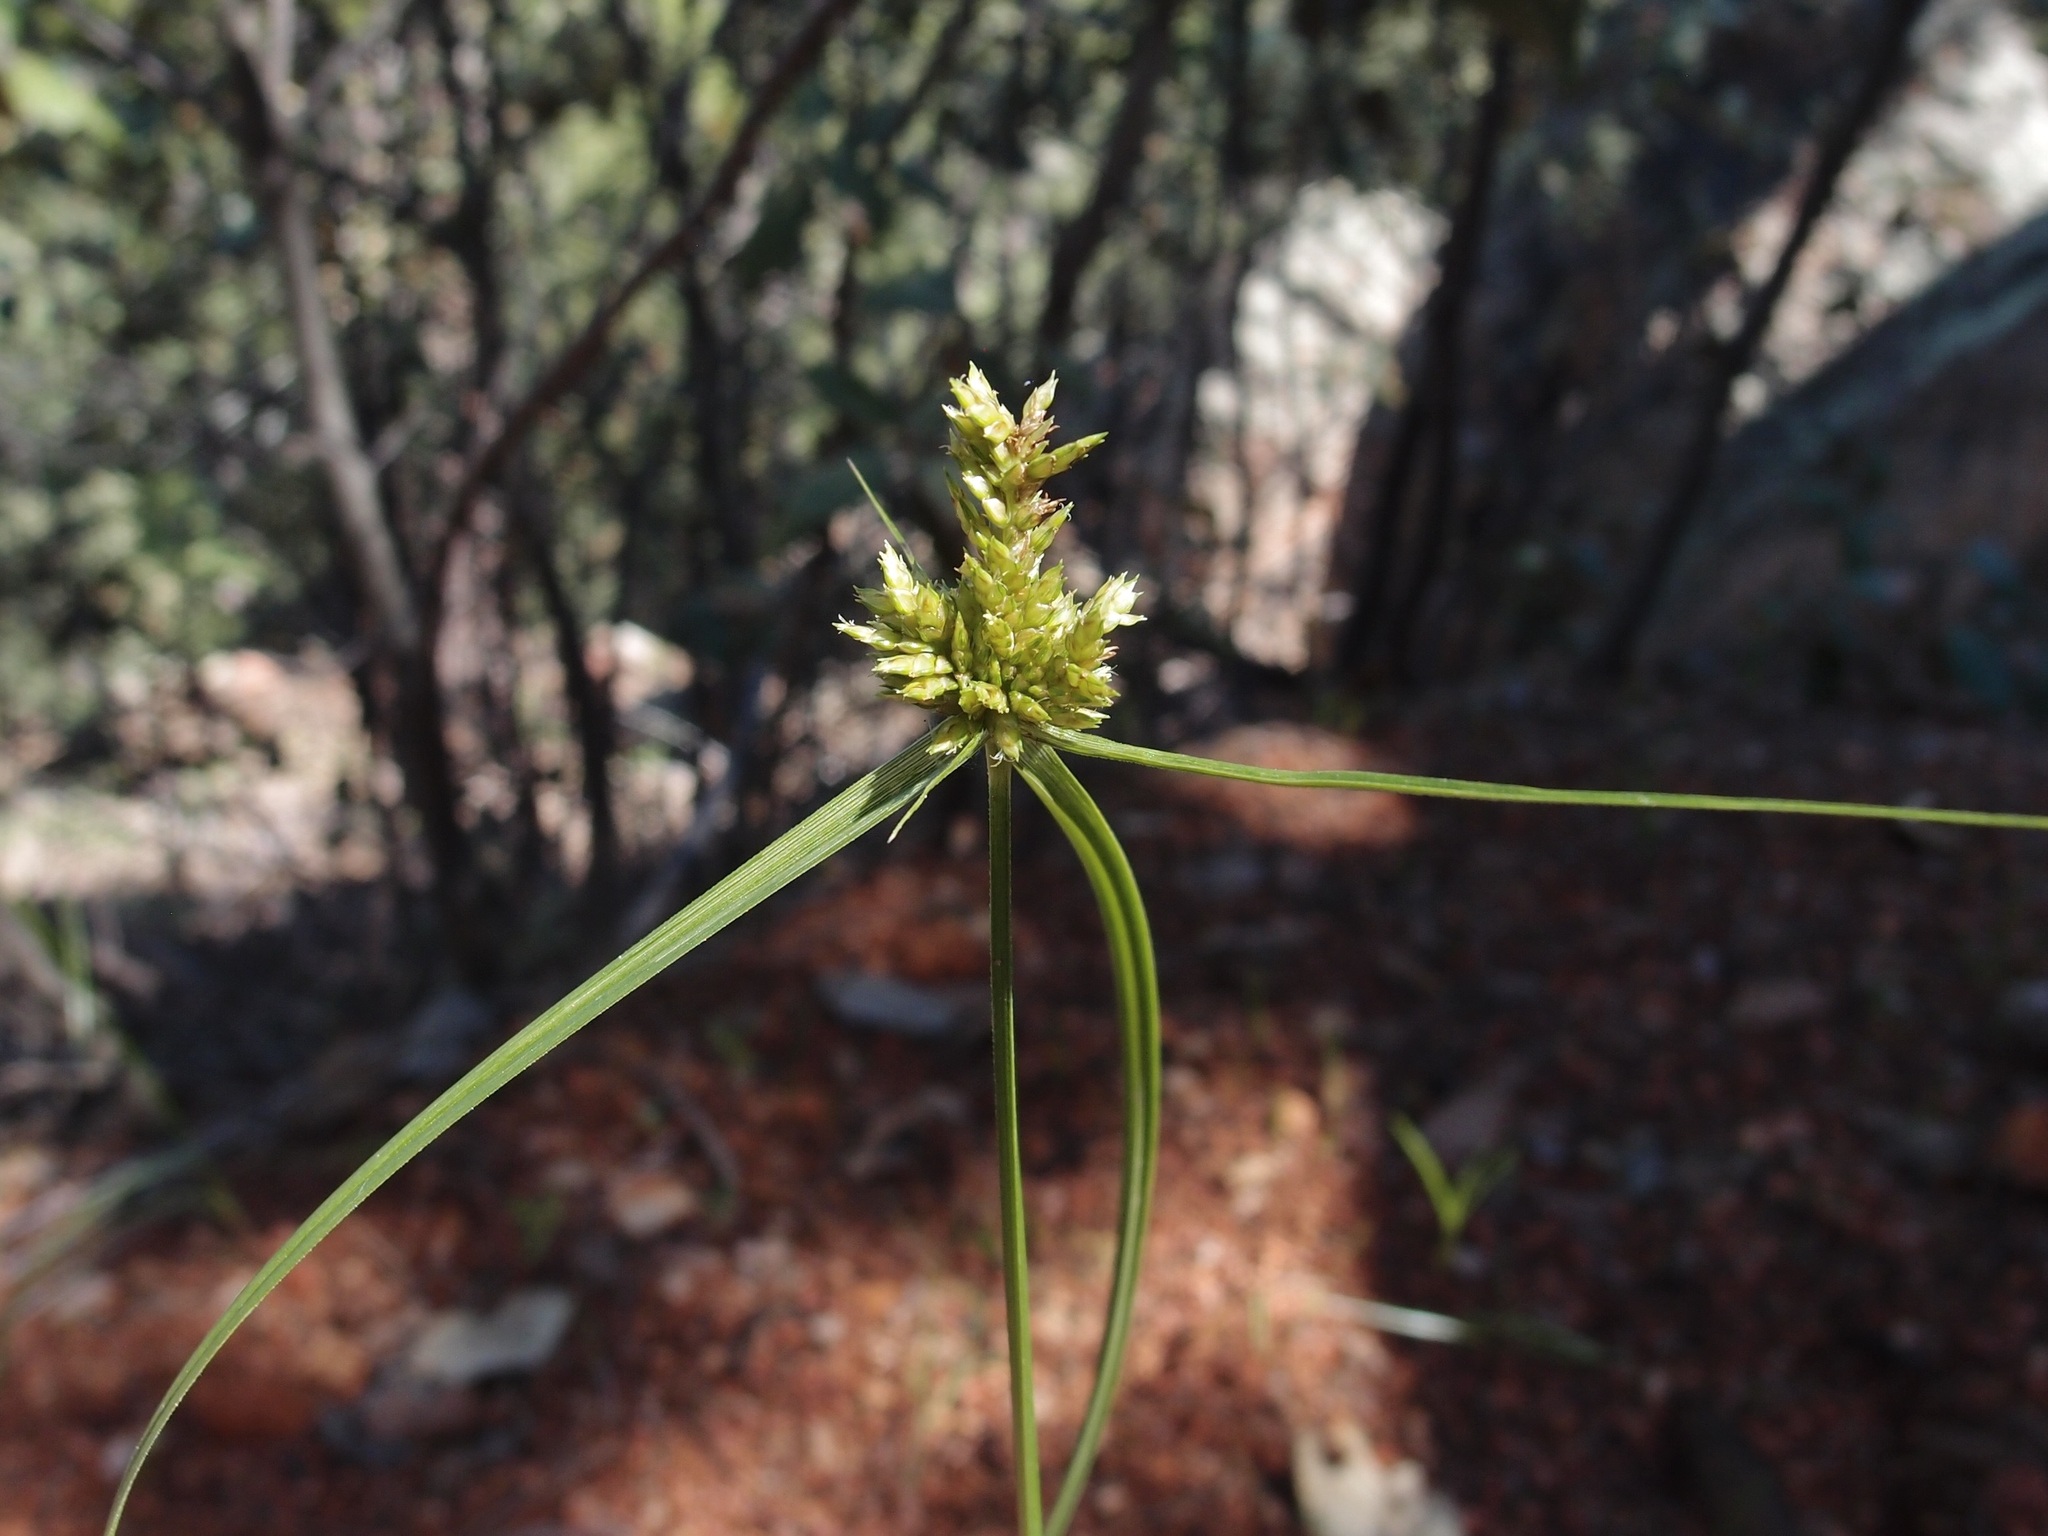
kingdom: Plantae
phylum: Tracheophyta
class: Liliopsida
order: Poales
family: Cyperaceae
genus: Cyperus
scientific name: Cyperus fendlerianus
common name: Fendler flat sedge
